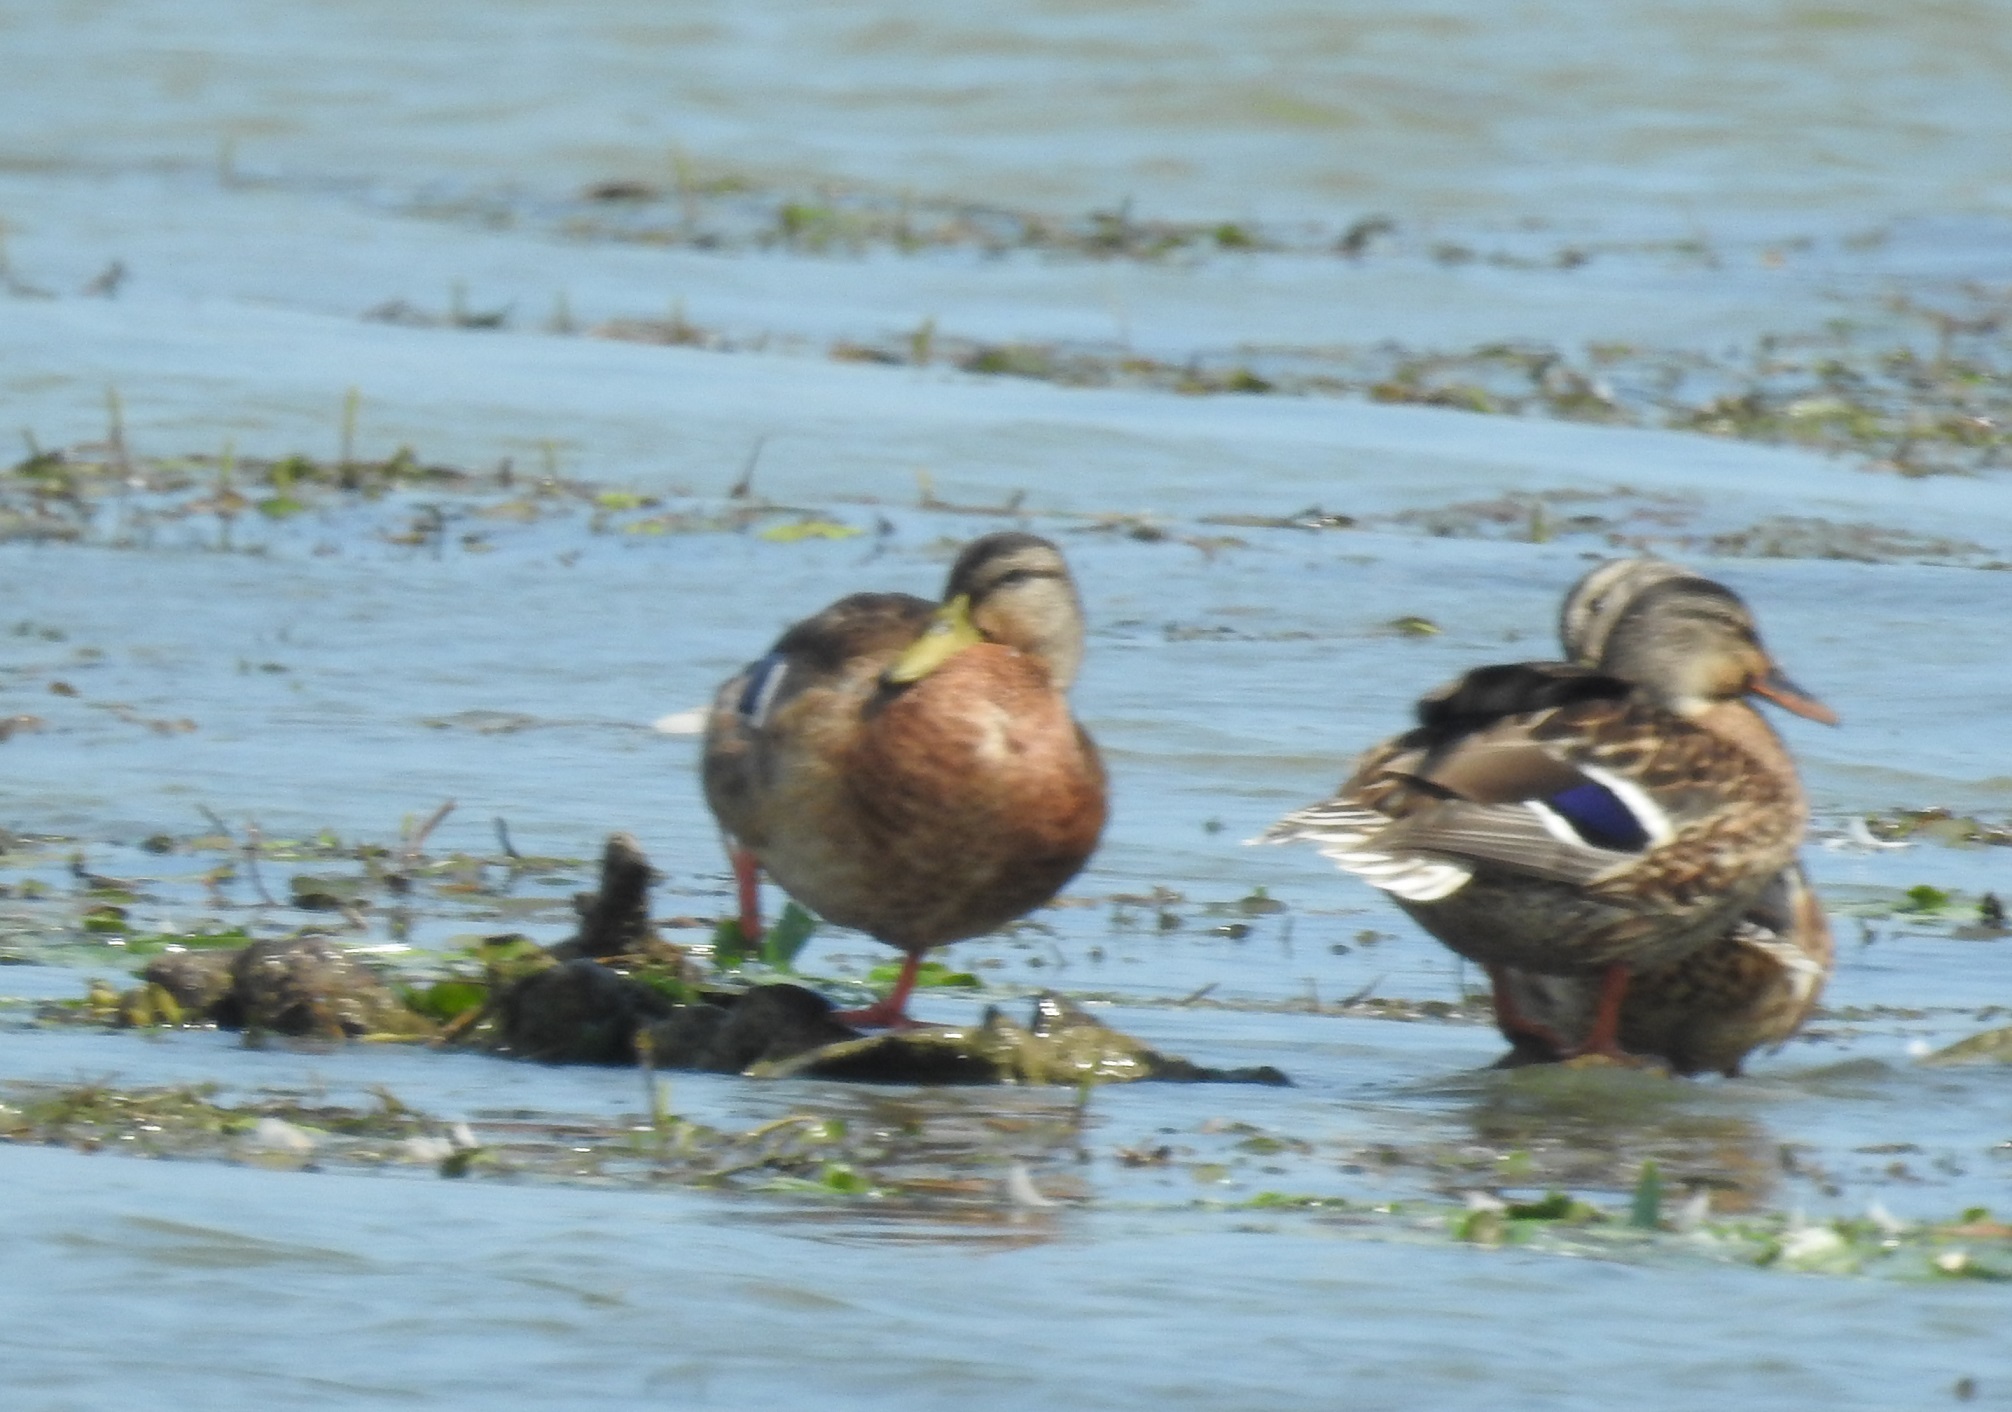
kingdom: Animalia
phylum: Chordata
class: Aves
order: Anseriformes
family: Anatidae
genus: Anas
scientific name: Anas platyrhynchos
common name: Mallard
